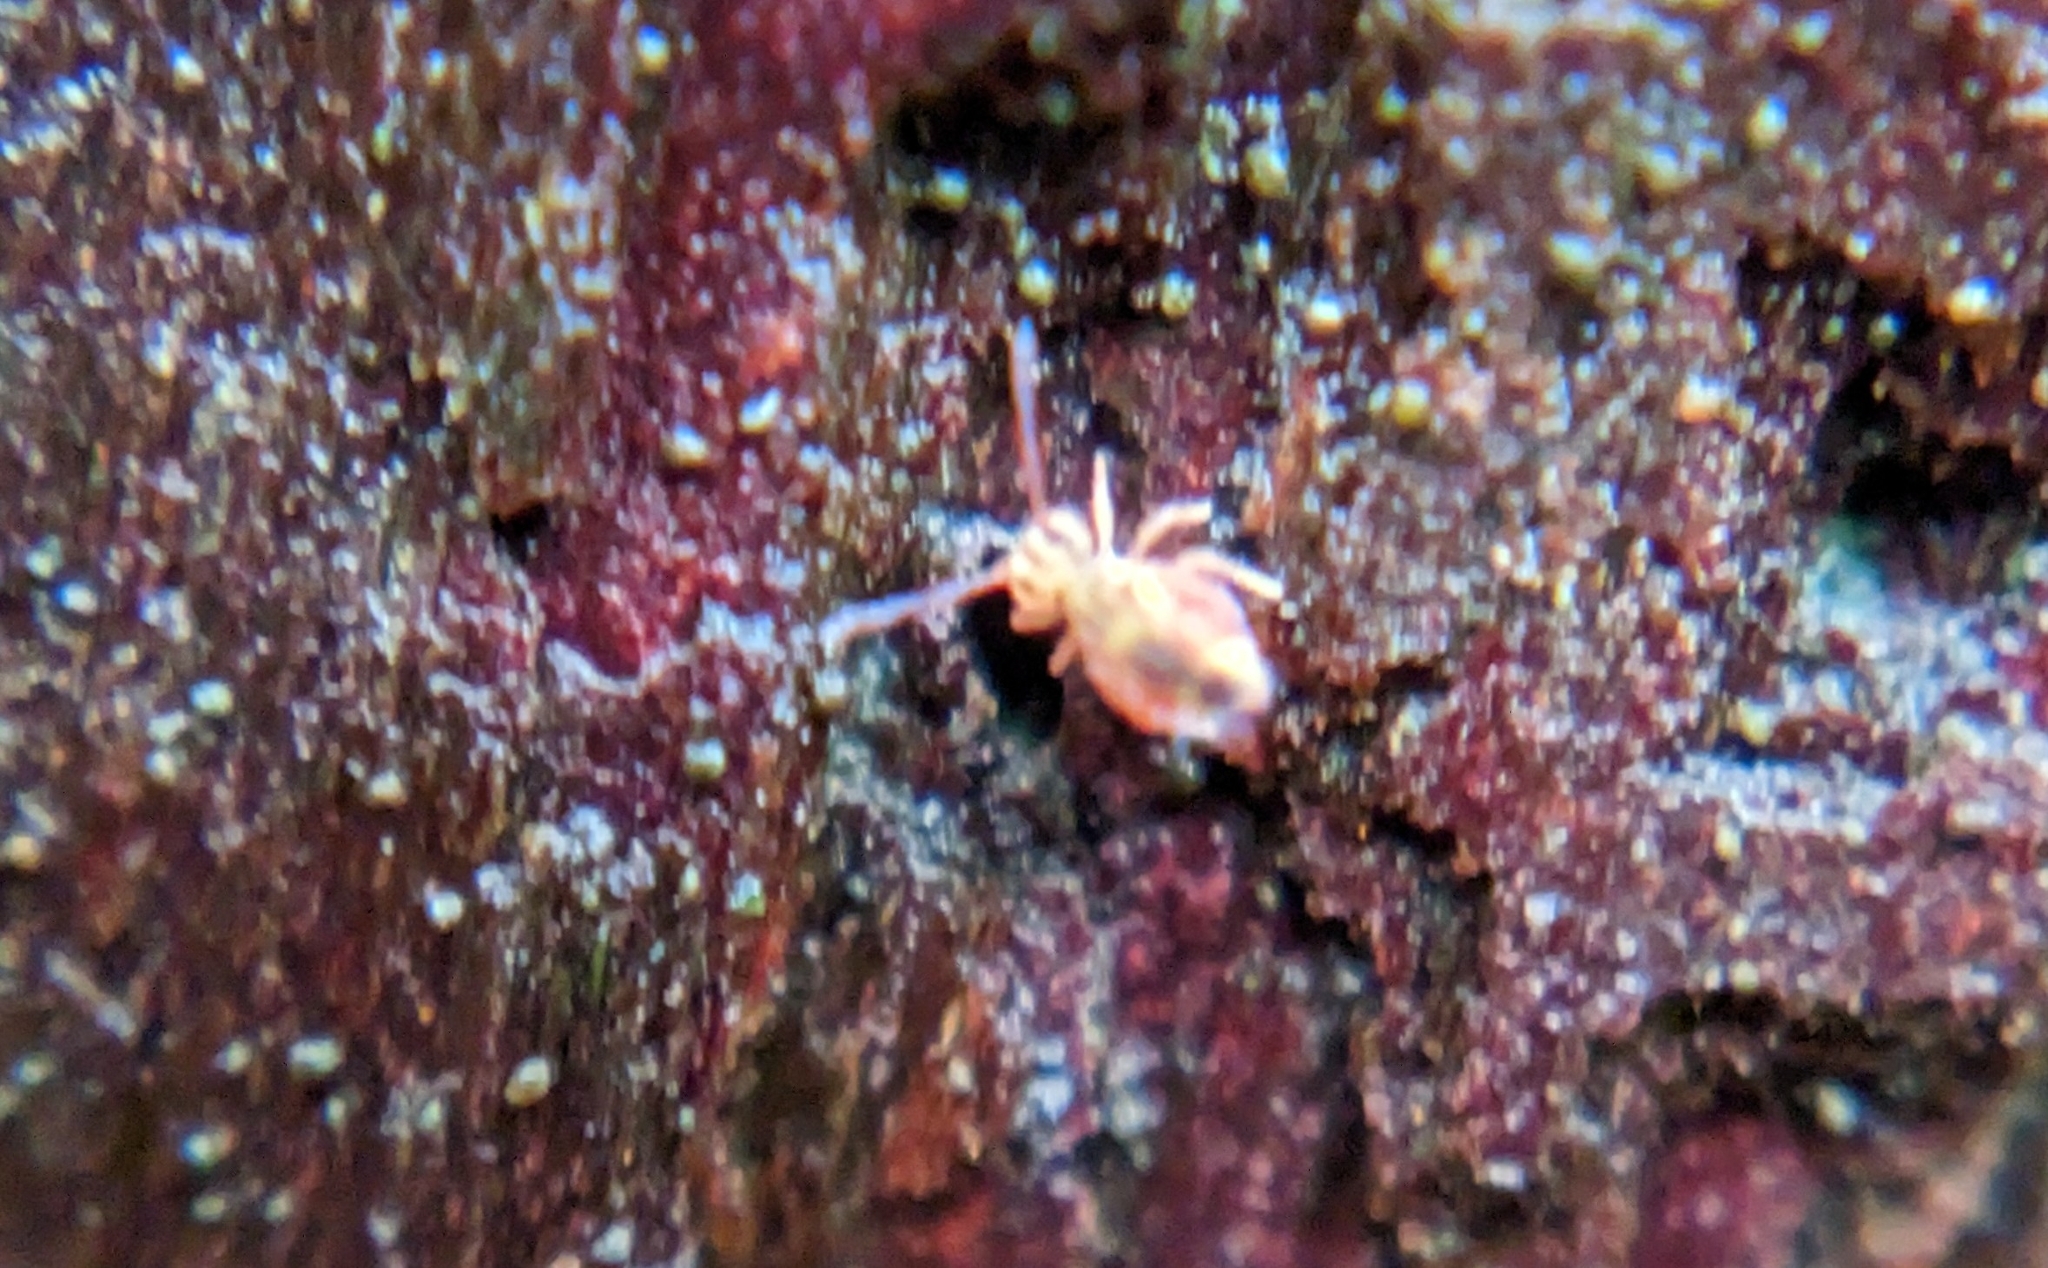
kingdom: Animalia
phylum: Arthropoda
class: Collembola
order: Symphypleona
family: Dicyrtomidae
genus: Dicyrtomina
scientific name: Dicyrtomina minuta
